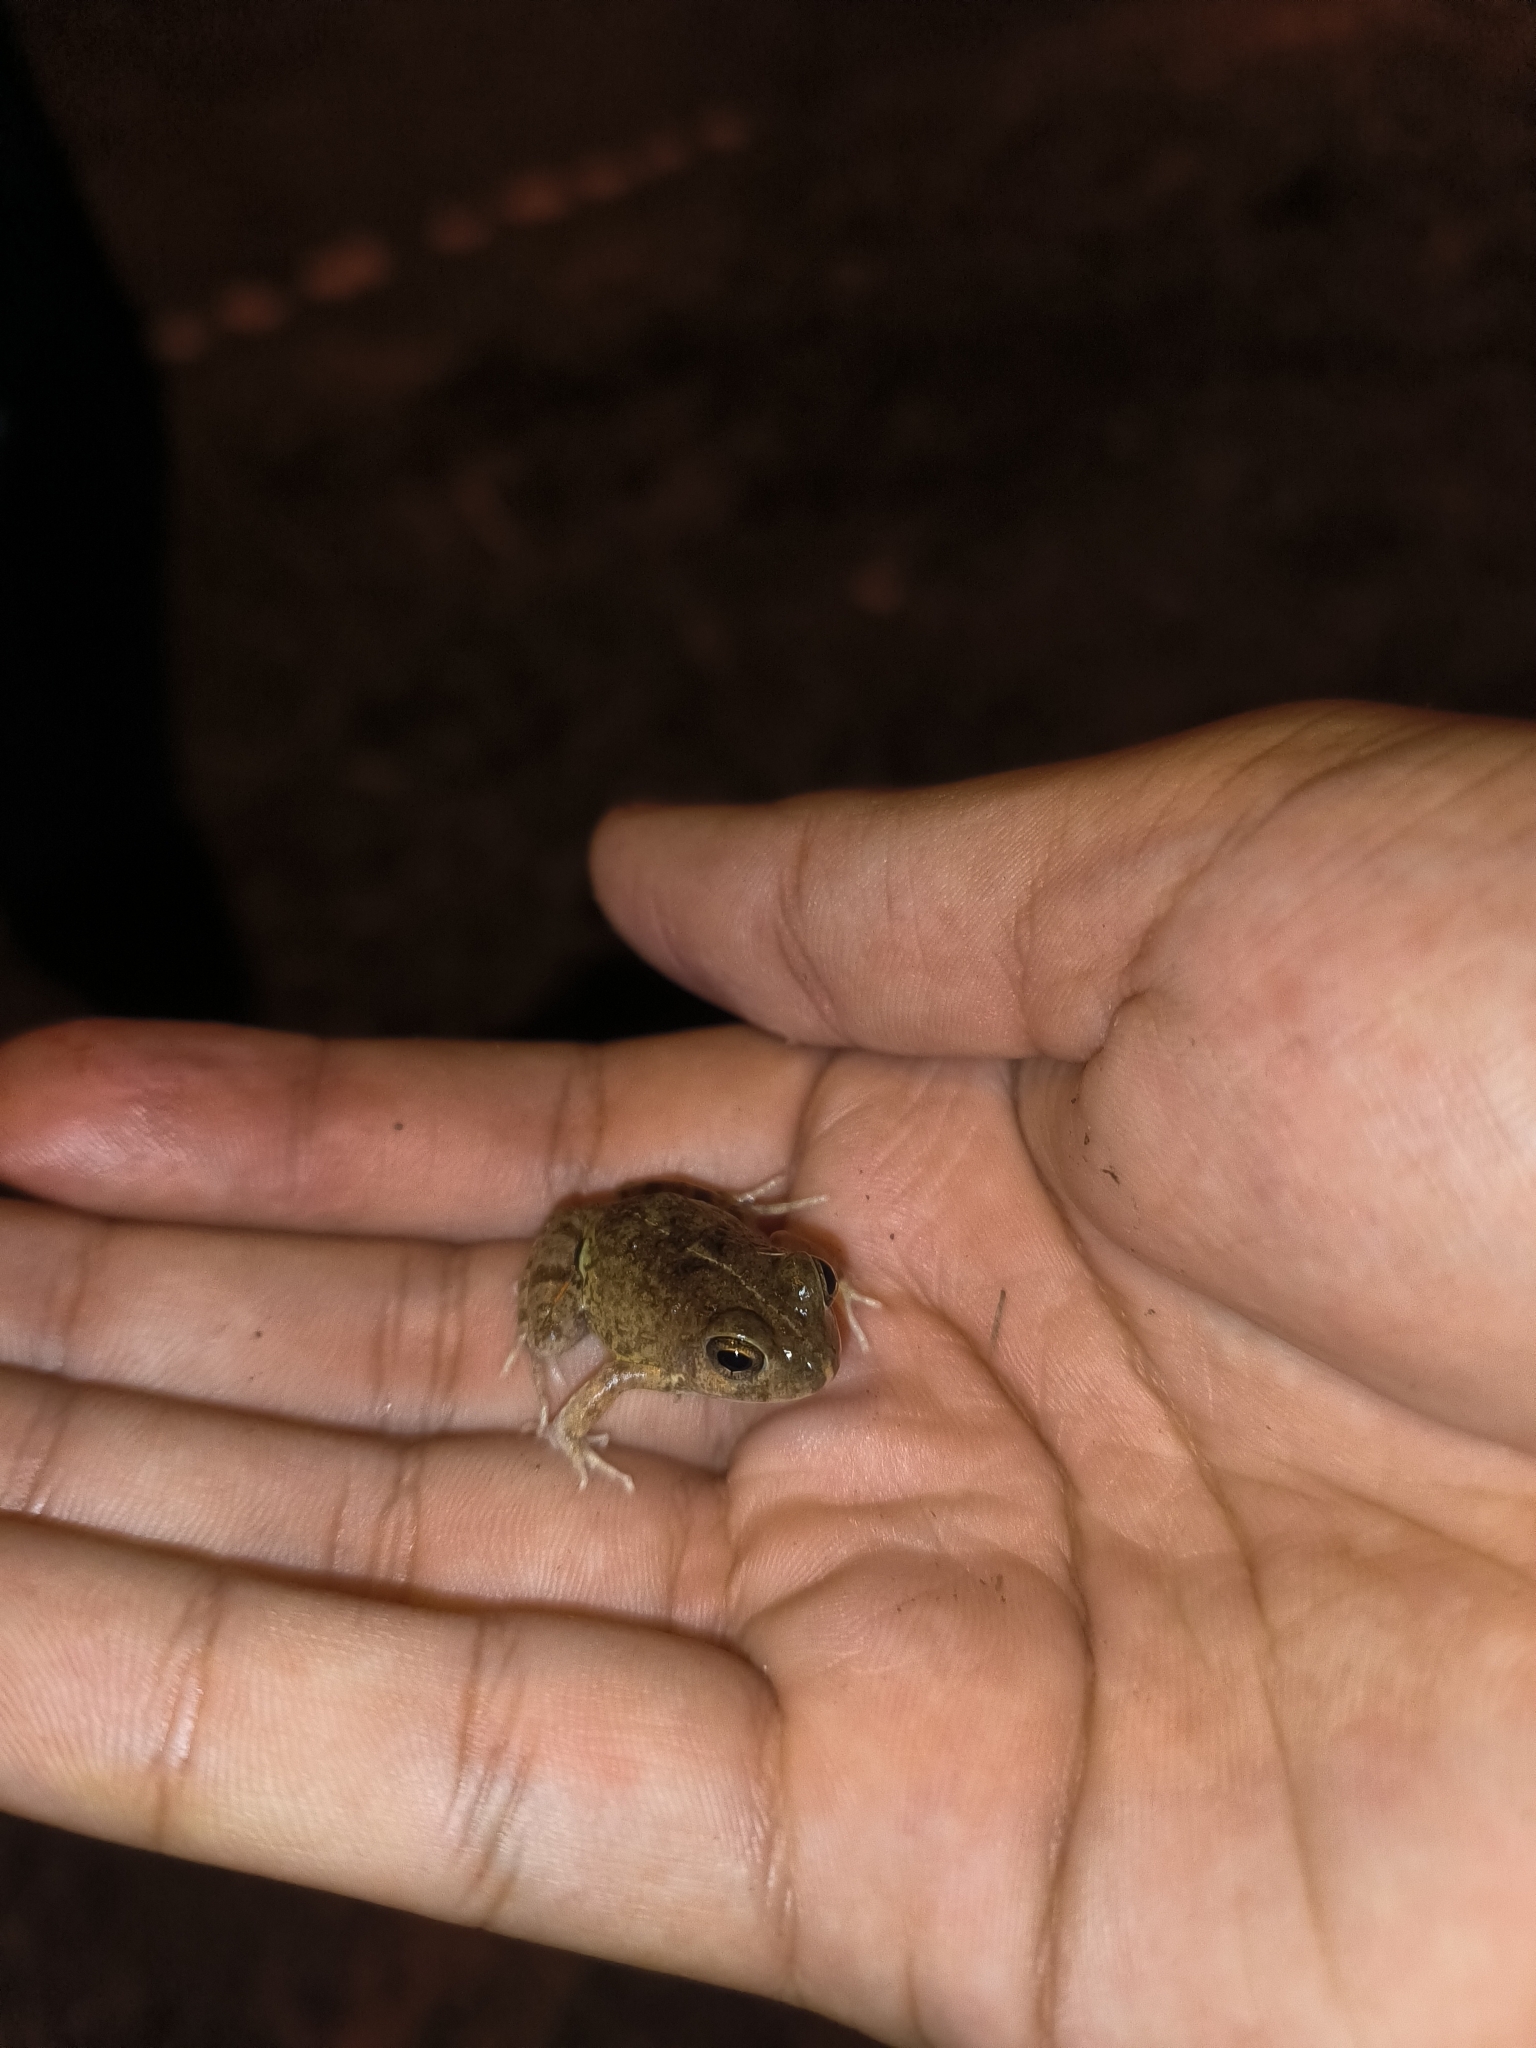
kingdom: Animalia
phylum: Chordata
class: Amphibia
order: Anura
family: Leptodactylidae
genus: Pleurodema
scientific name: Pleurodema brachyops
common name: Colombian four-eyed frog
